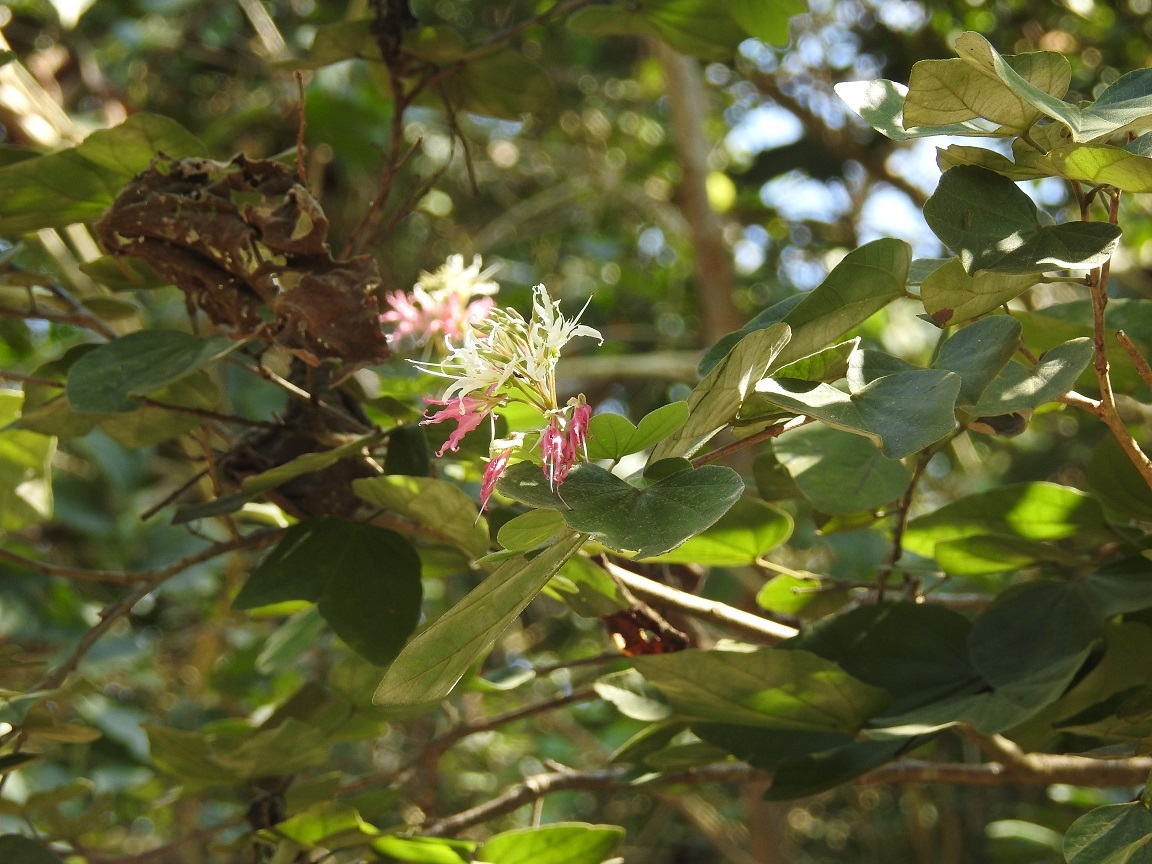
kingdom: Plantae
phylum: Tracheophyta
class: Magnoliopsida
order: Fabales
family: Fabaceae
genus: Bauhinia
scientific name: Bauhinia divaricata
